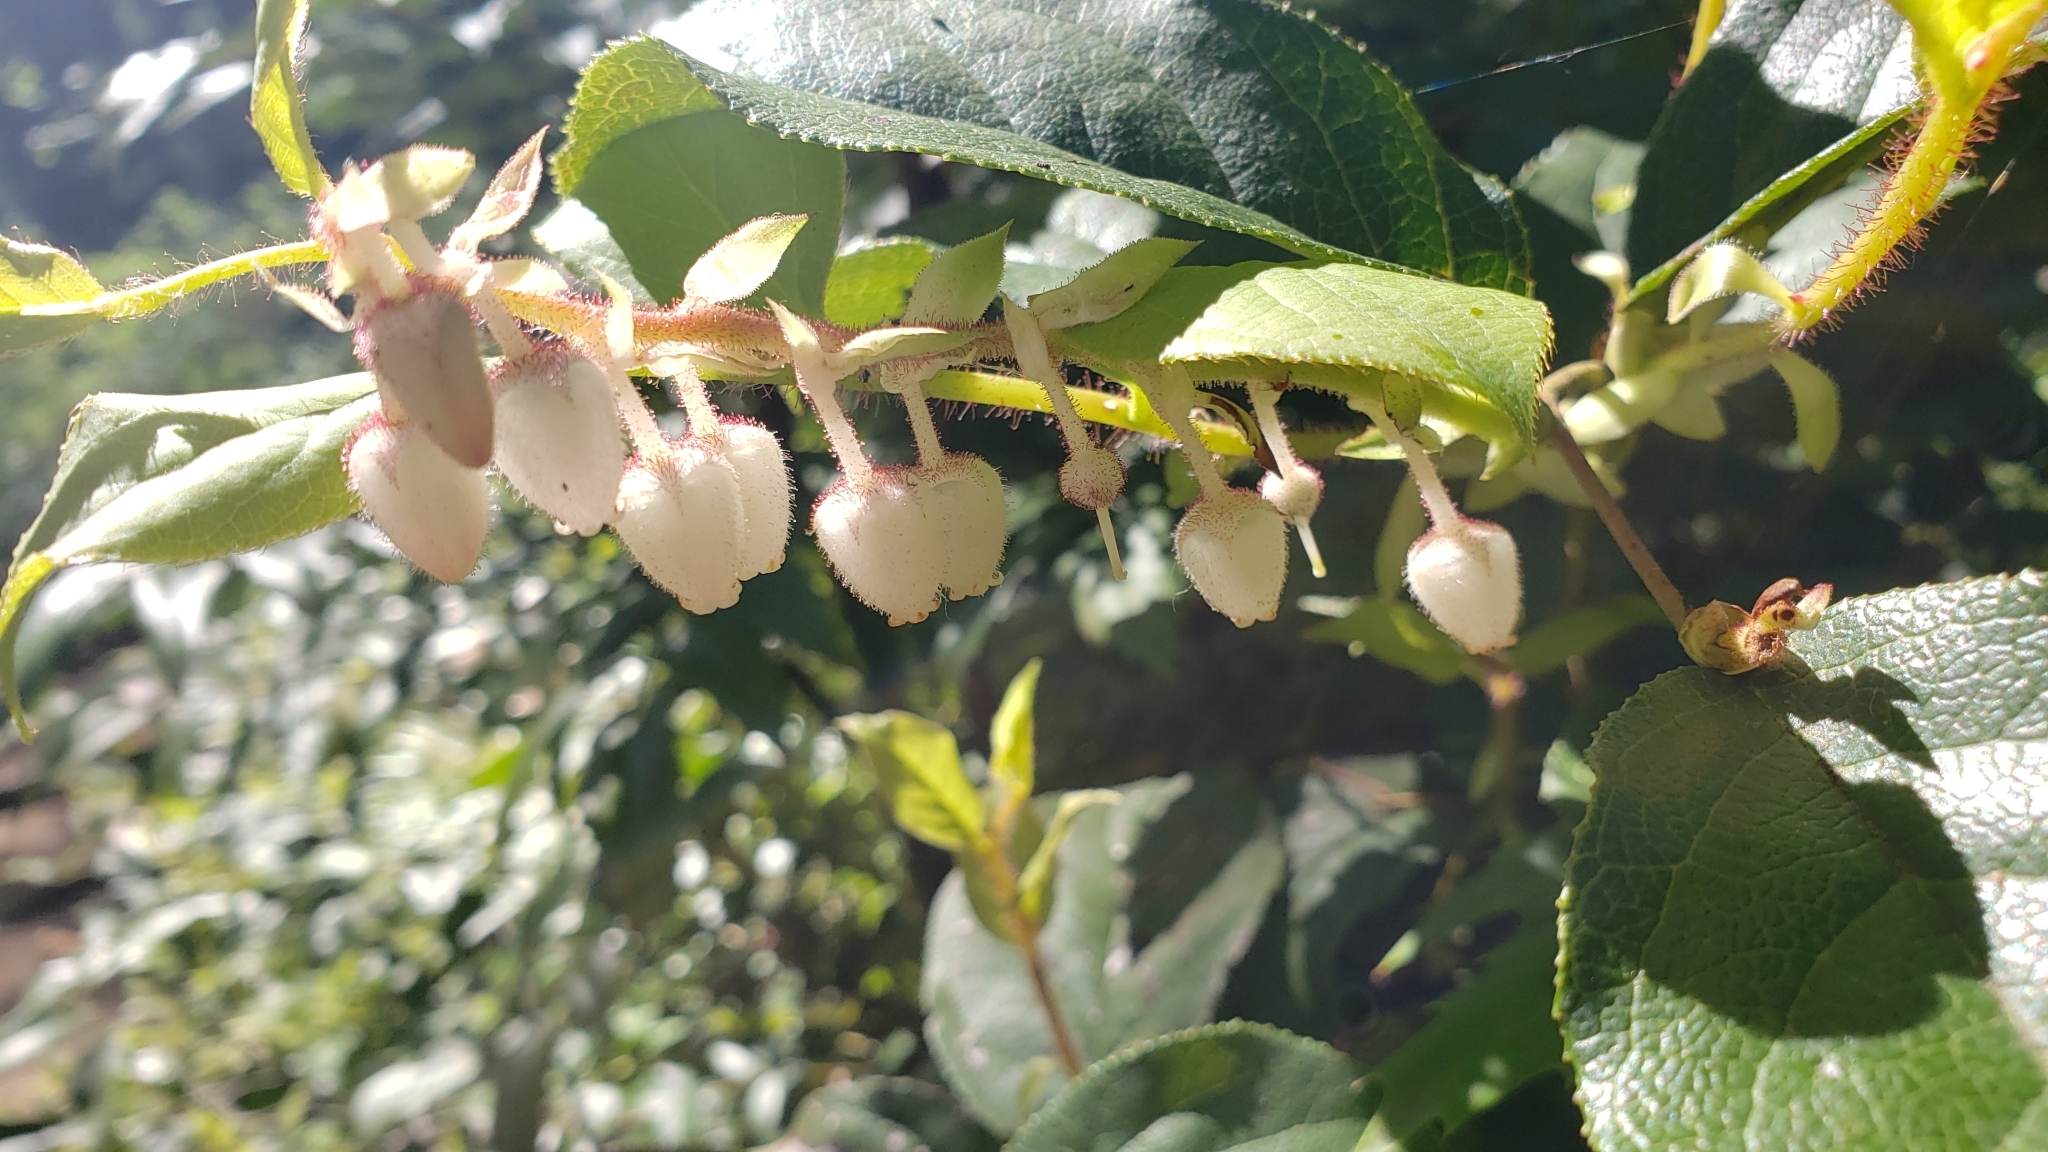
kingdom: Plantae
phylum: Tracheophyta
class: Magnoliopsida
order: Ericales
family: Ericaceae
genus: Gaultheria
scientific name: Gaultheria shallon
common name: Shallon
